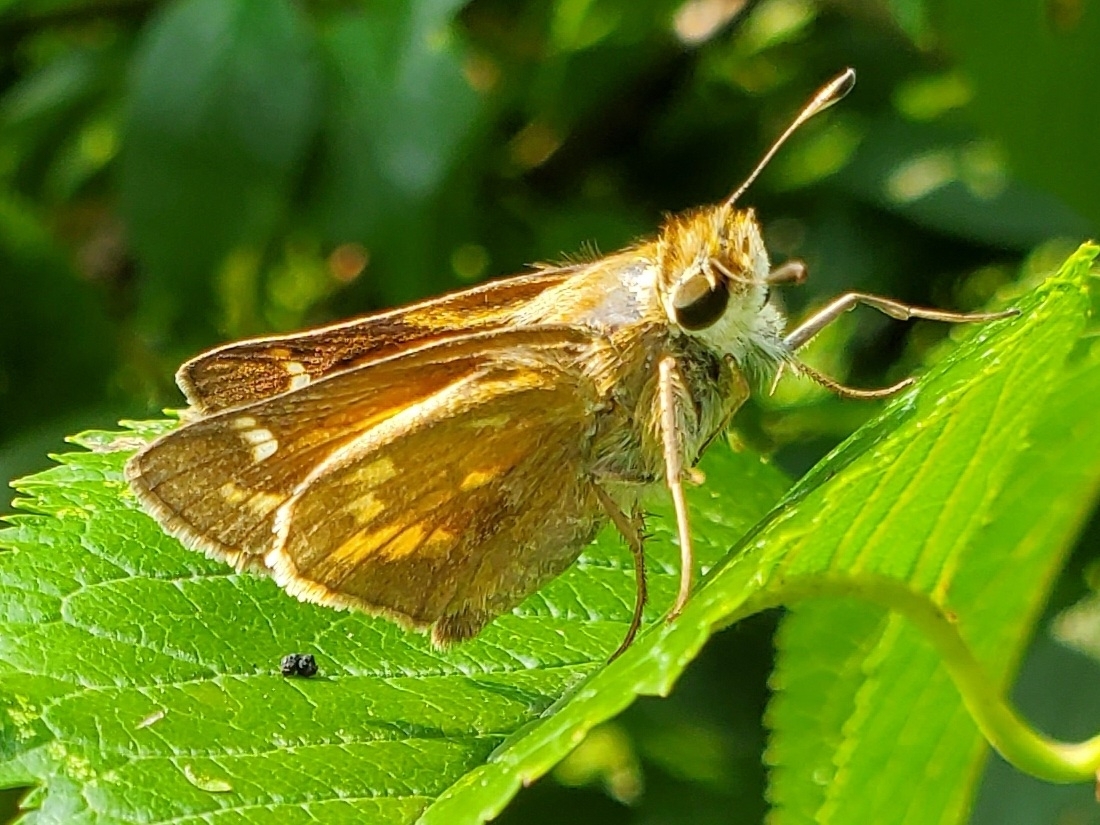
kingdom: Animalia
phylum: Arthropoda
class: Insecta
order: Lepidoptera
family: Hesperiidae
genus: Atalopedes
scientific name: Atalopedes
